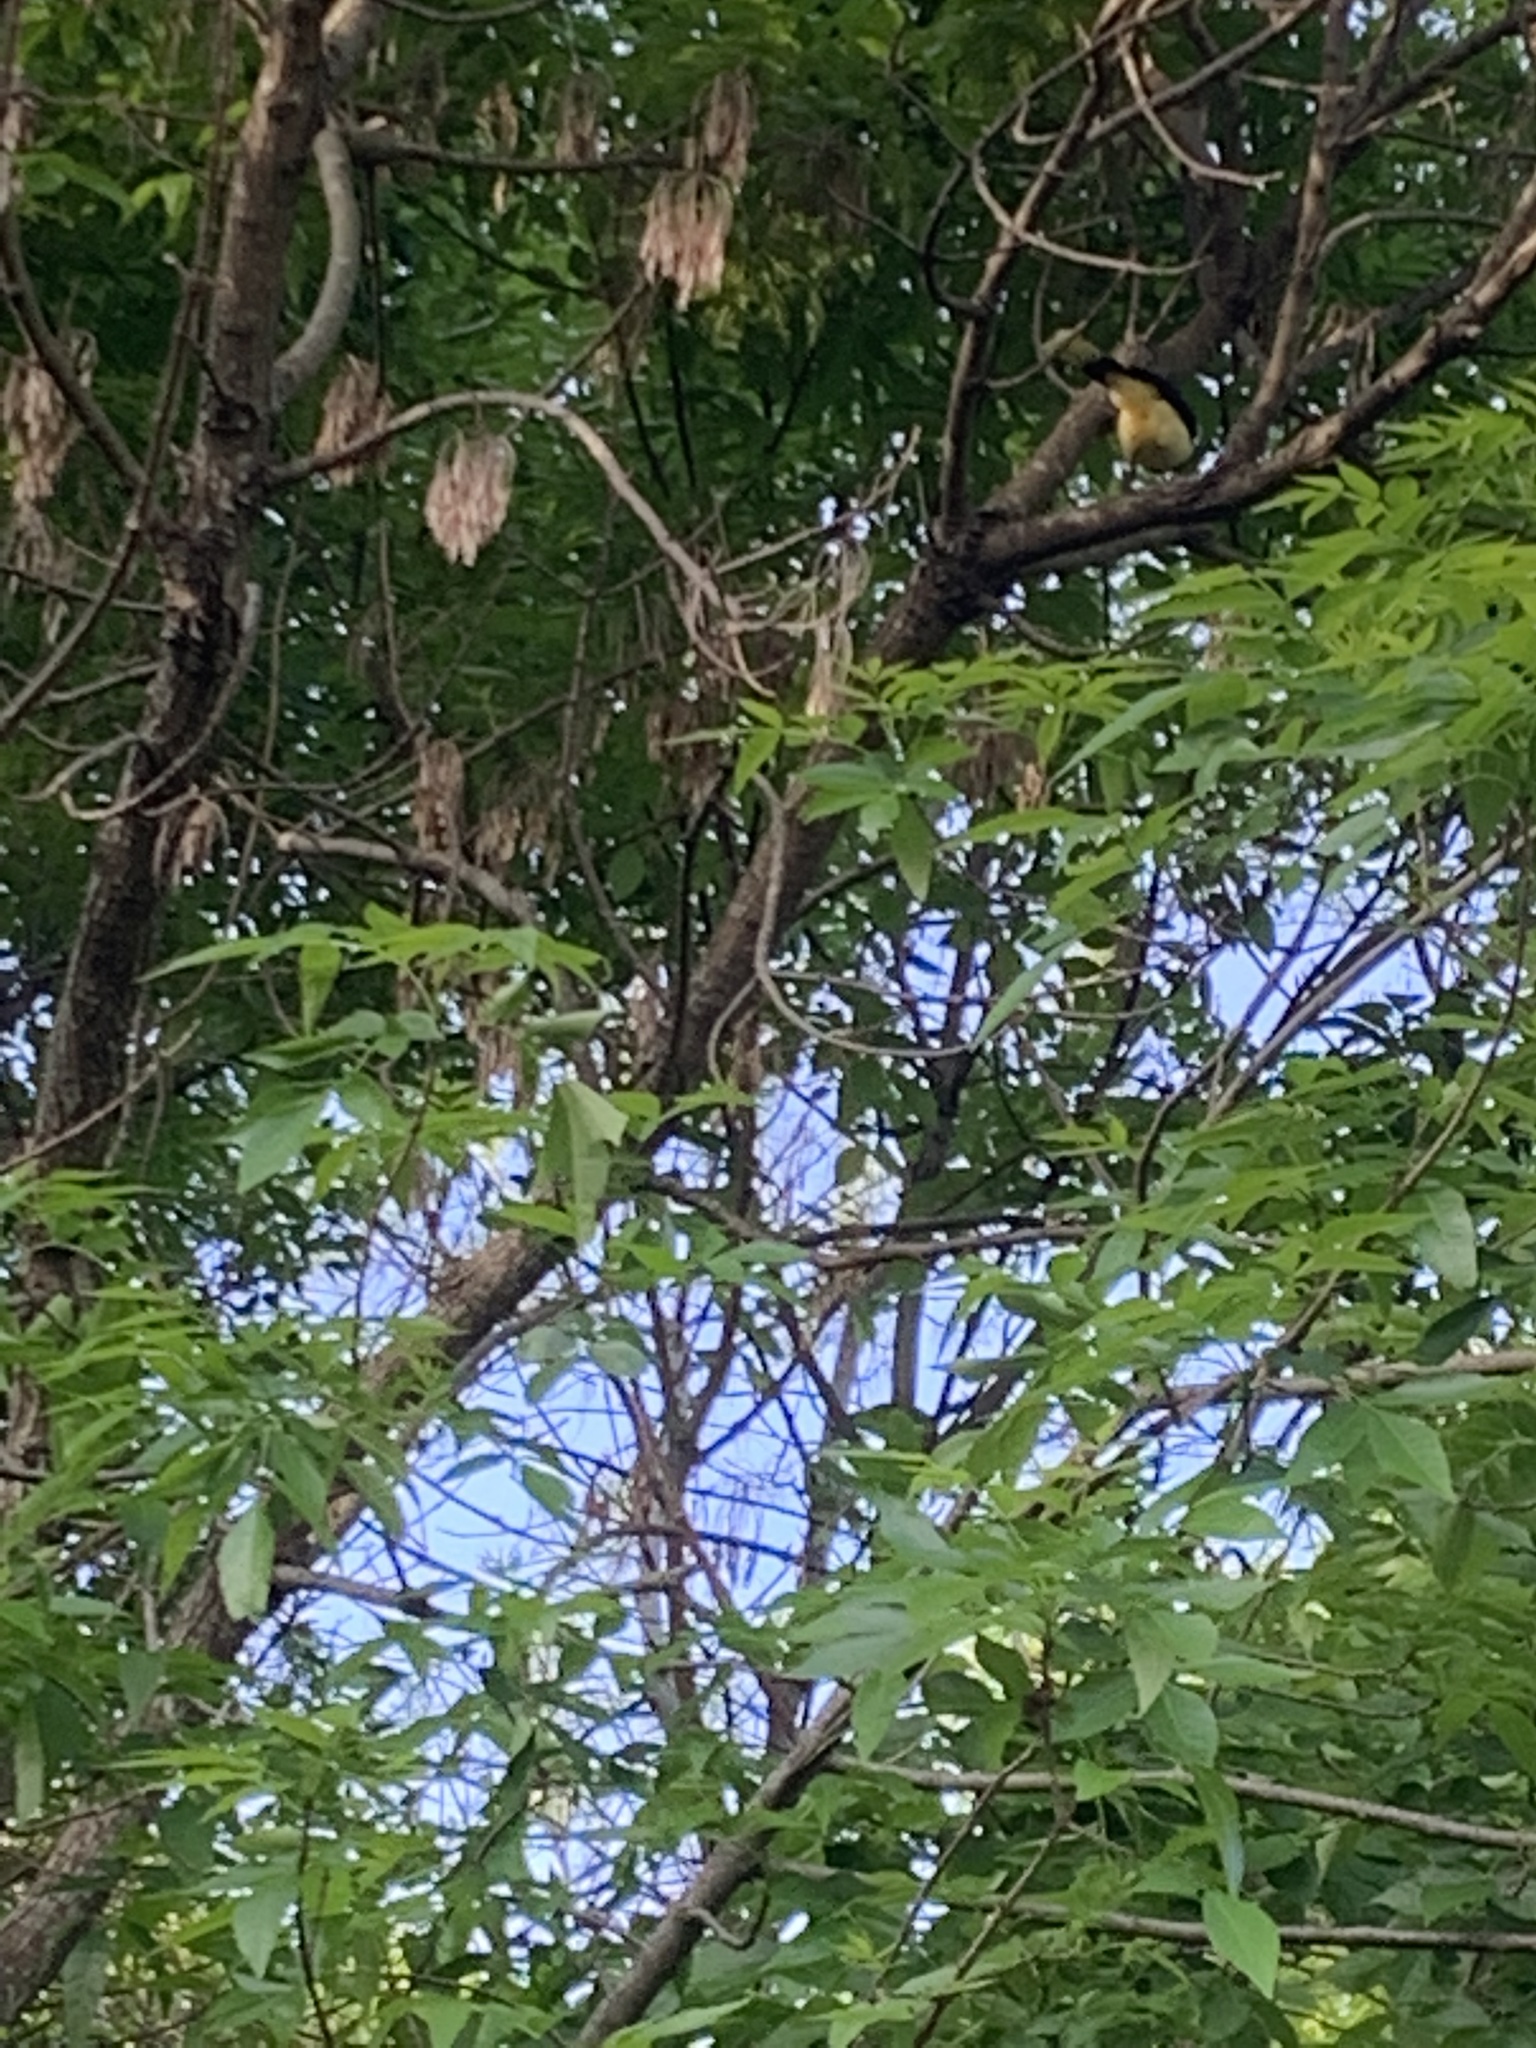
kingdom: Animalia
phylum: Chordata
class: Aves
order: Passeriformes
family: Corvidae
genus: Cyanocorax
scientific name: Cyanocorax chrysops
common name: Plush-crested jay
